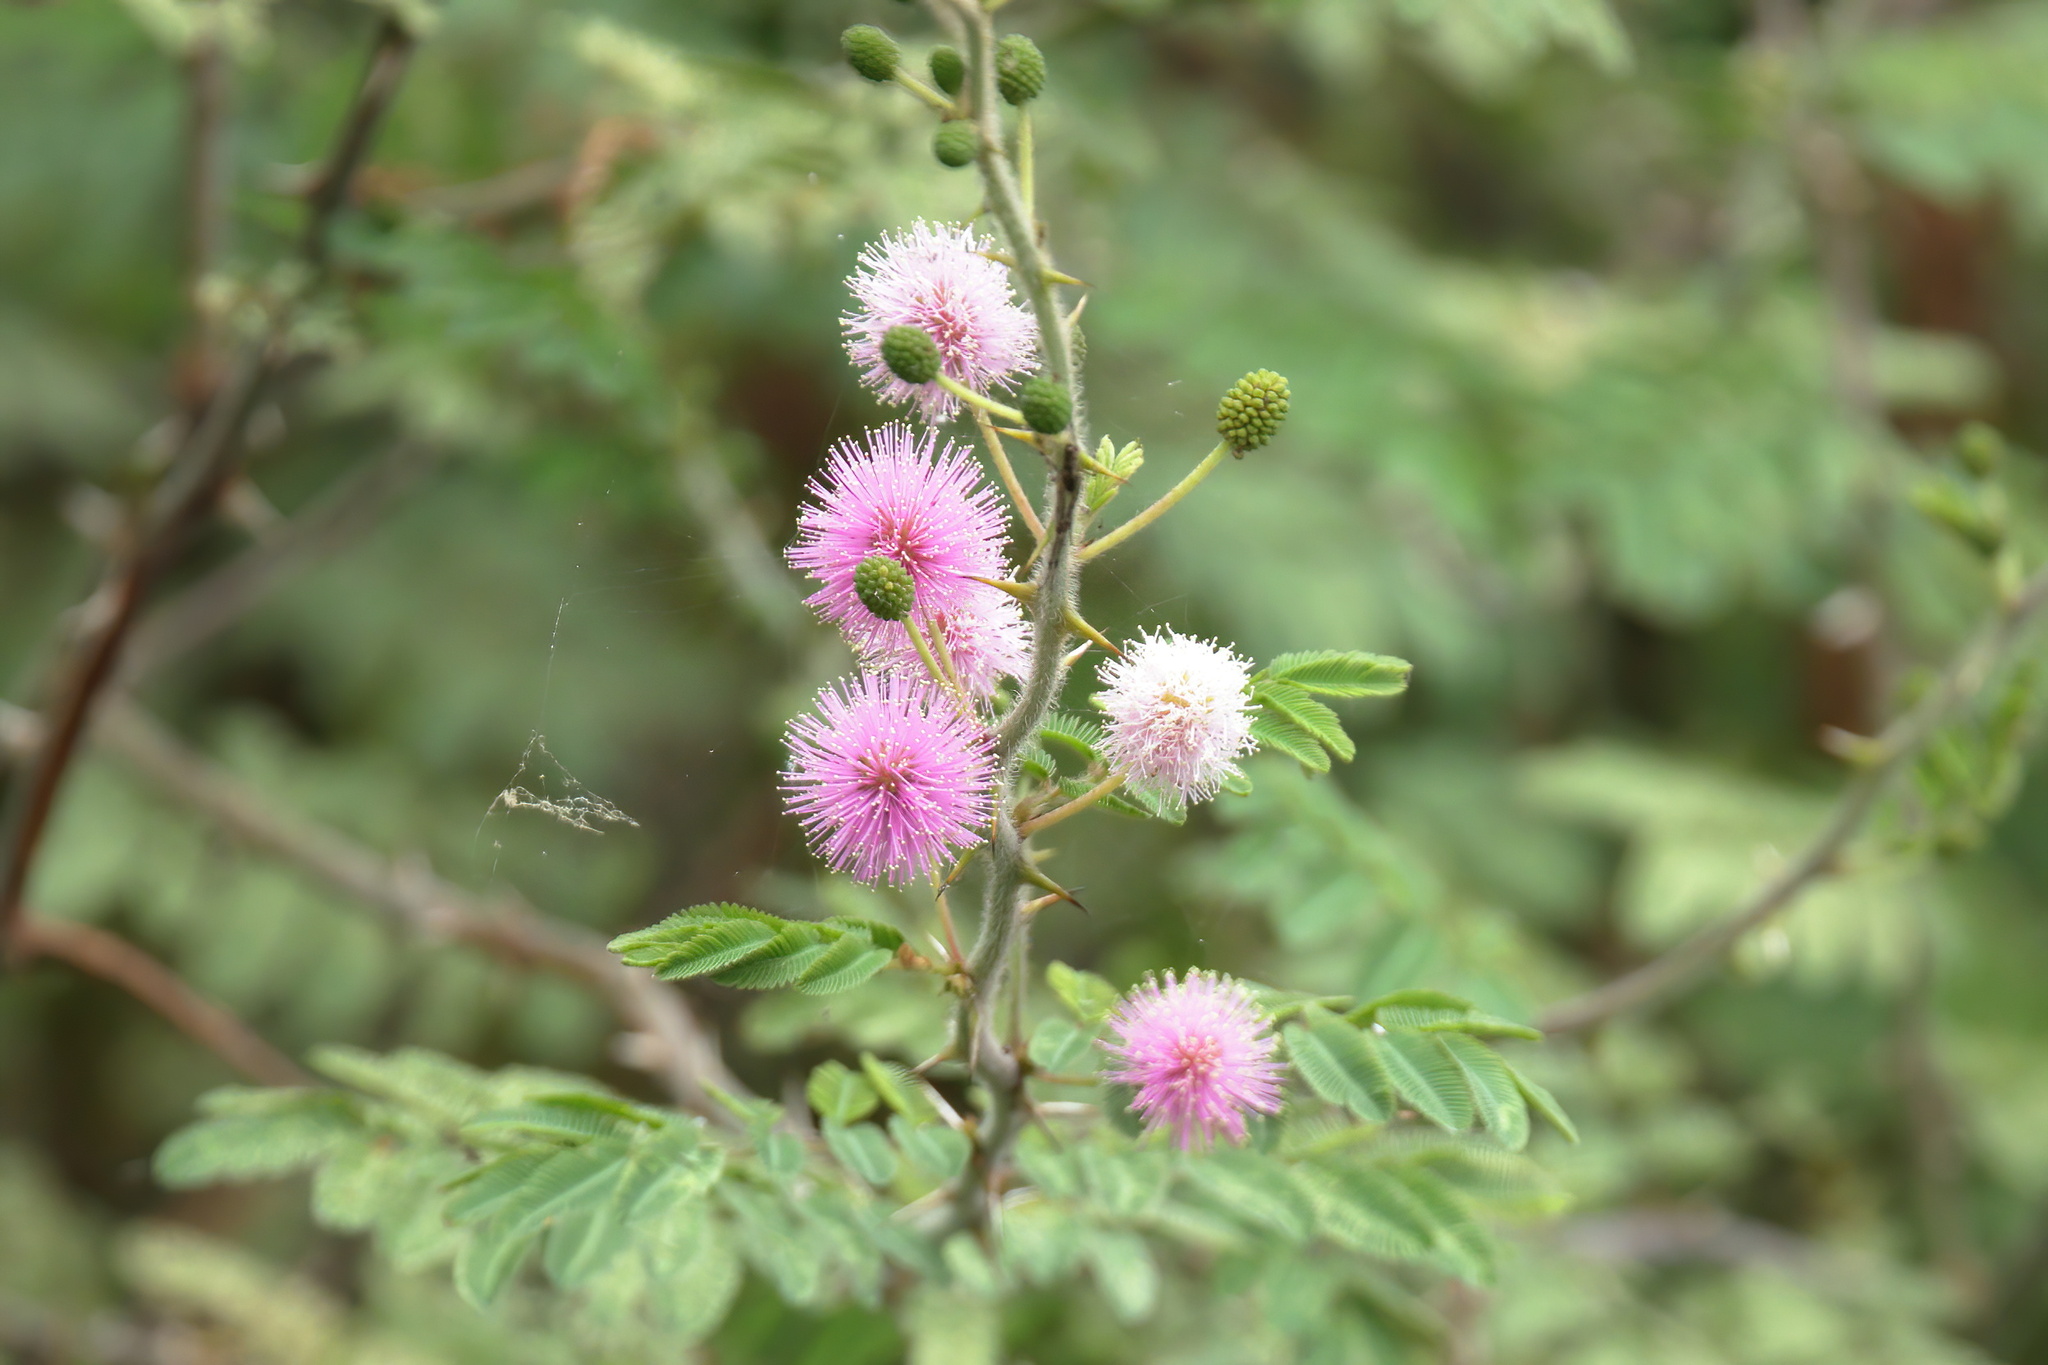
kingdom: Plantae
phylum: Tracheophyta
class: Magnoliopsida
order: Fabales
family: Fabaceae
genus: Mimosa
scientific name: Mimosa pigra
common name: Black mimosa
